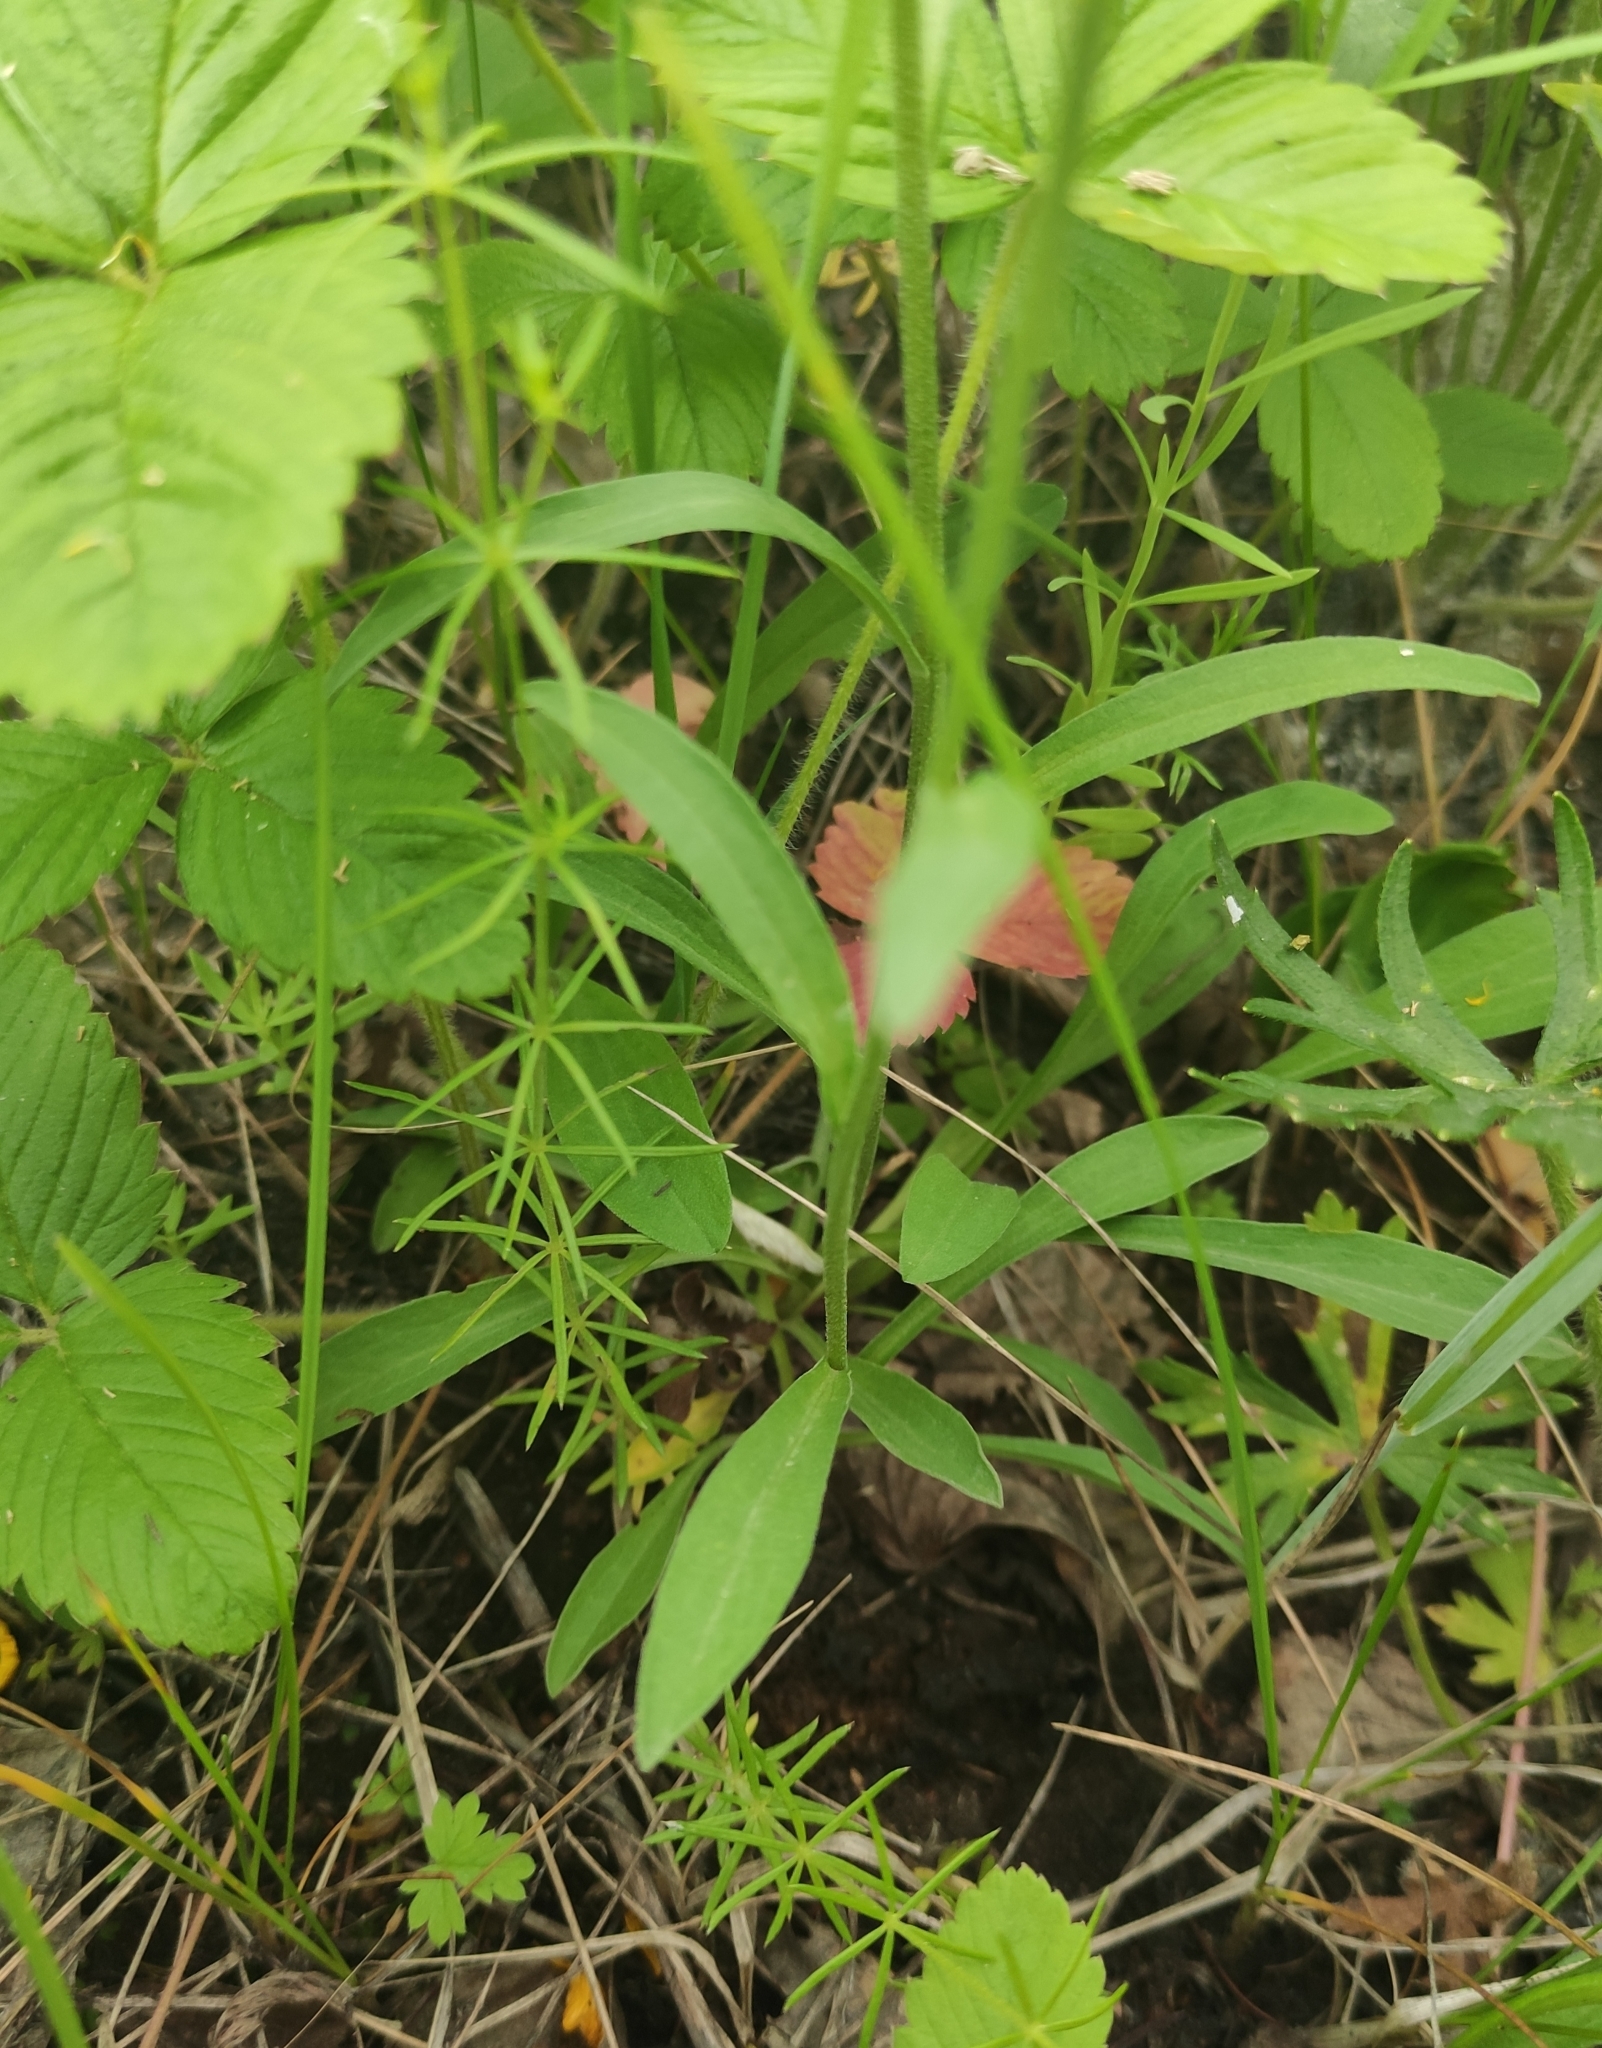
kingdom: Plantae
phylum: Tracheophyta
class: Magnoliopsida
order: Asterales
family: Asteraceae
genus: Aster
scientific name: Aster alpinus
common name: Alpine aster
